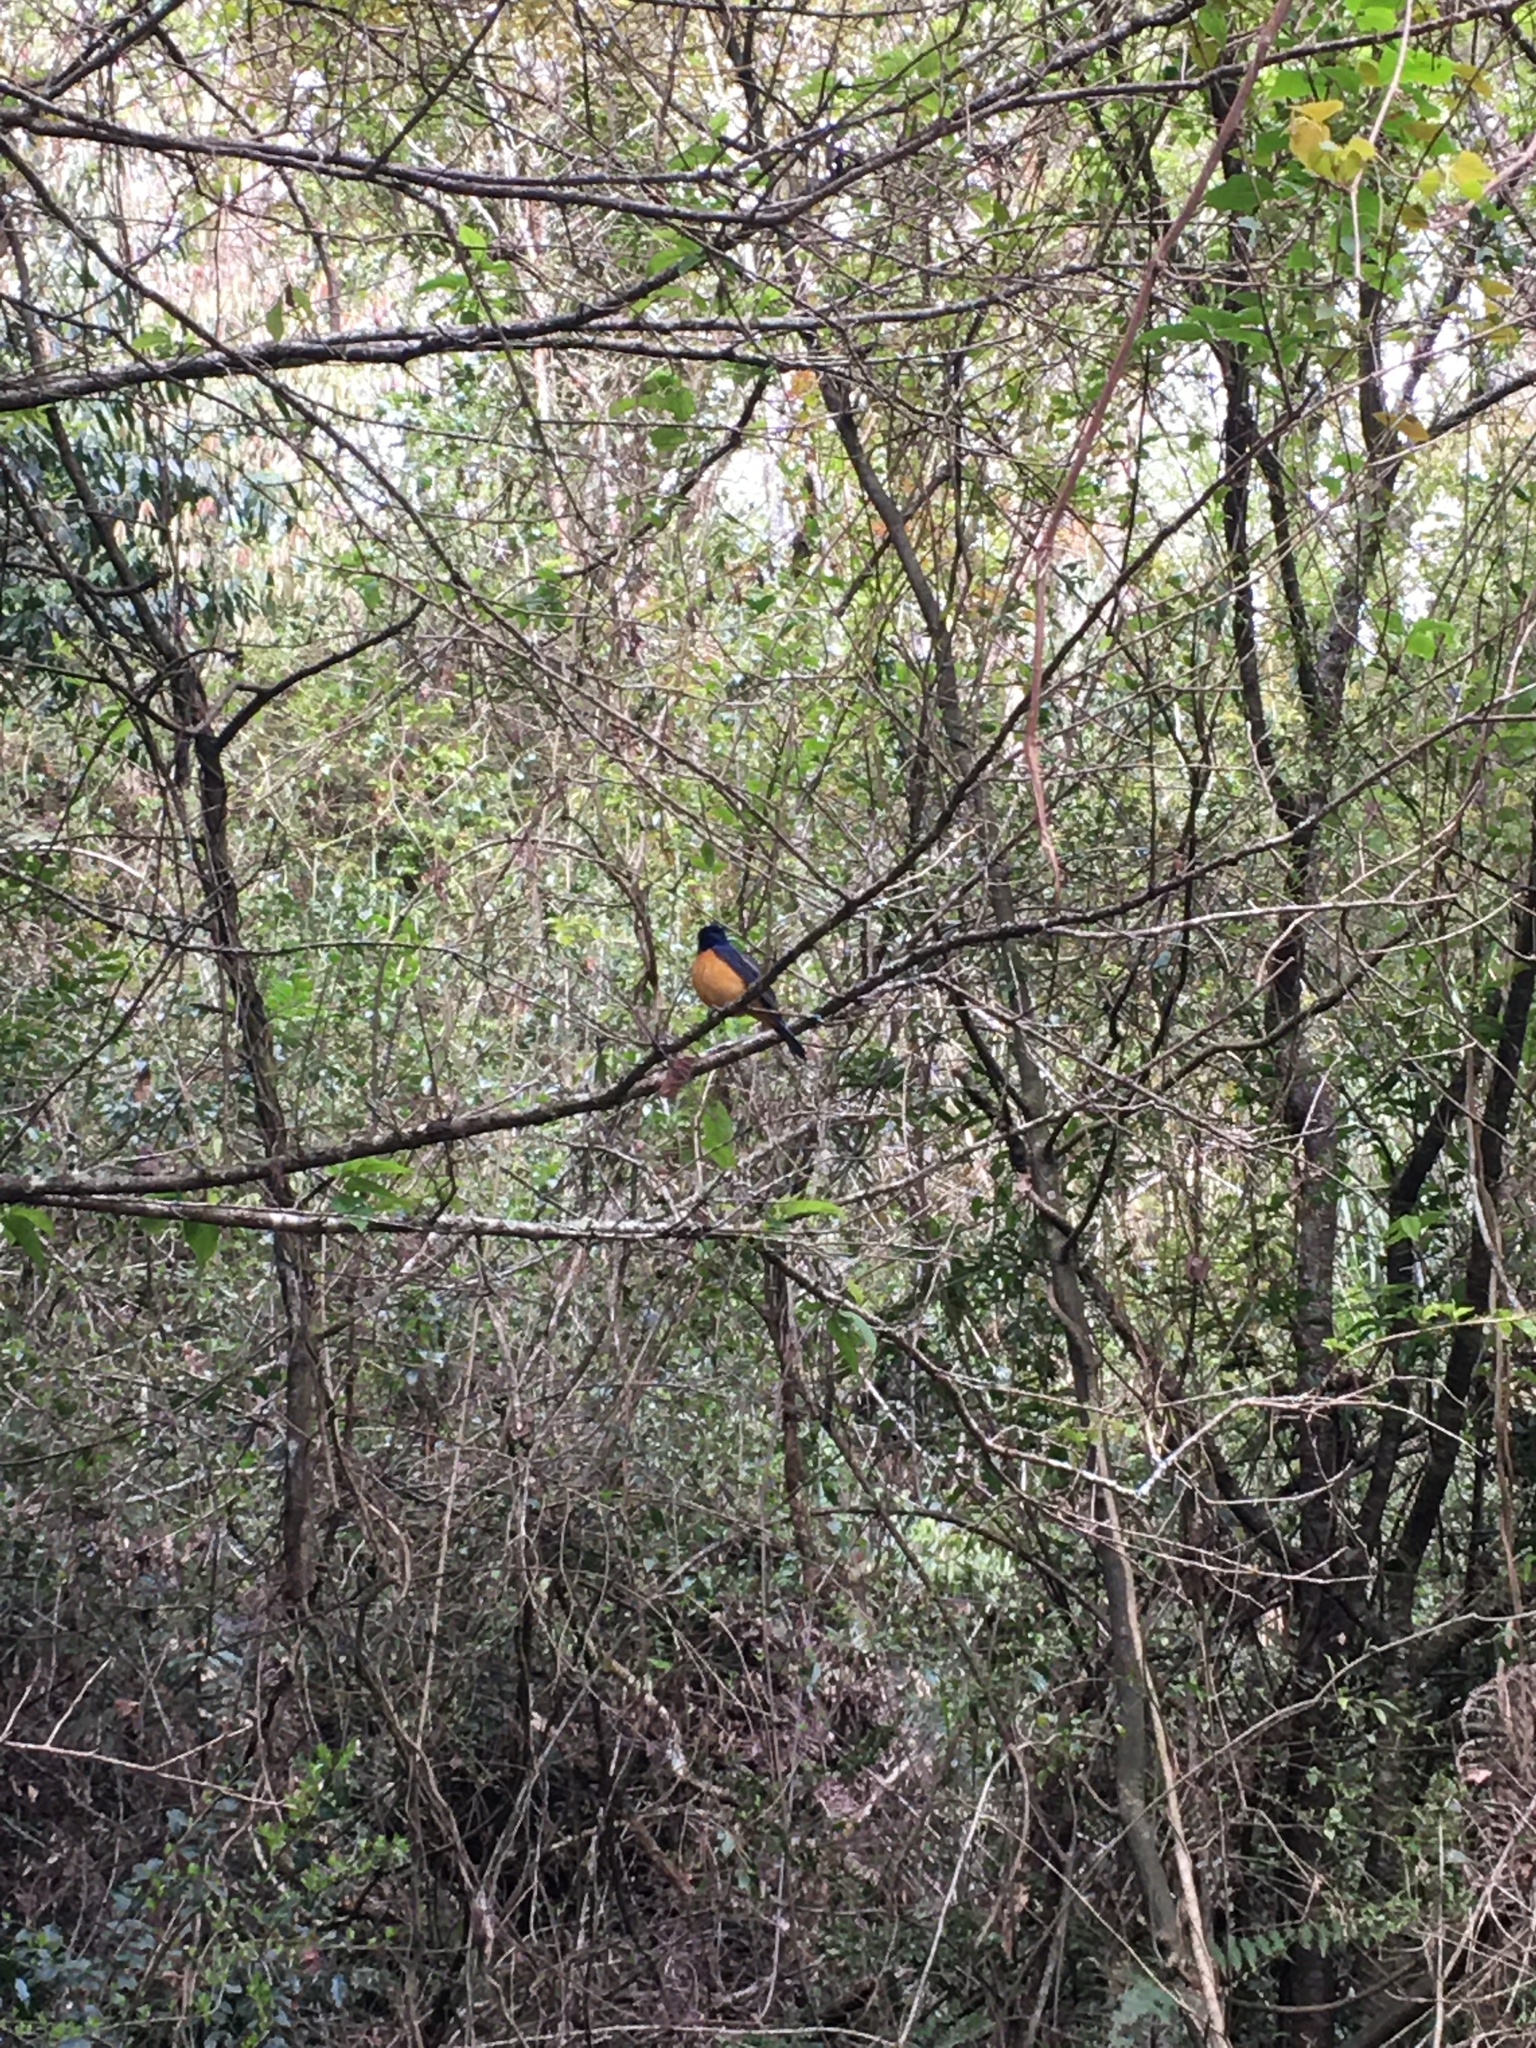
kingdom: Animalia
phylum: Chordata
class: Aves
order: Passeriformes
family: Muscicapidae
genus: Niltava
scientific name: Niltava vivida
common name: Vivid niltava
